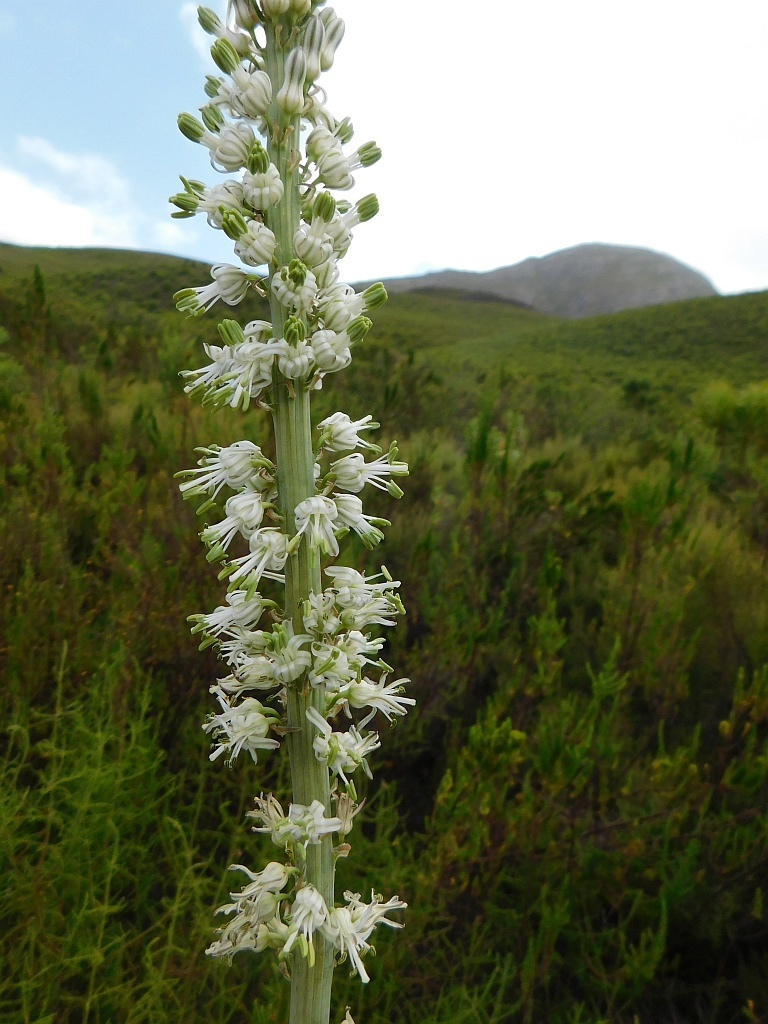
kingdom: Plantae
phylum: Tracheophyta
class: Liliopsida
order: Asparagales
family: Asparagaceae
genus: Drimia
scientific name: Drimia capensis
